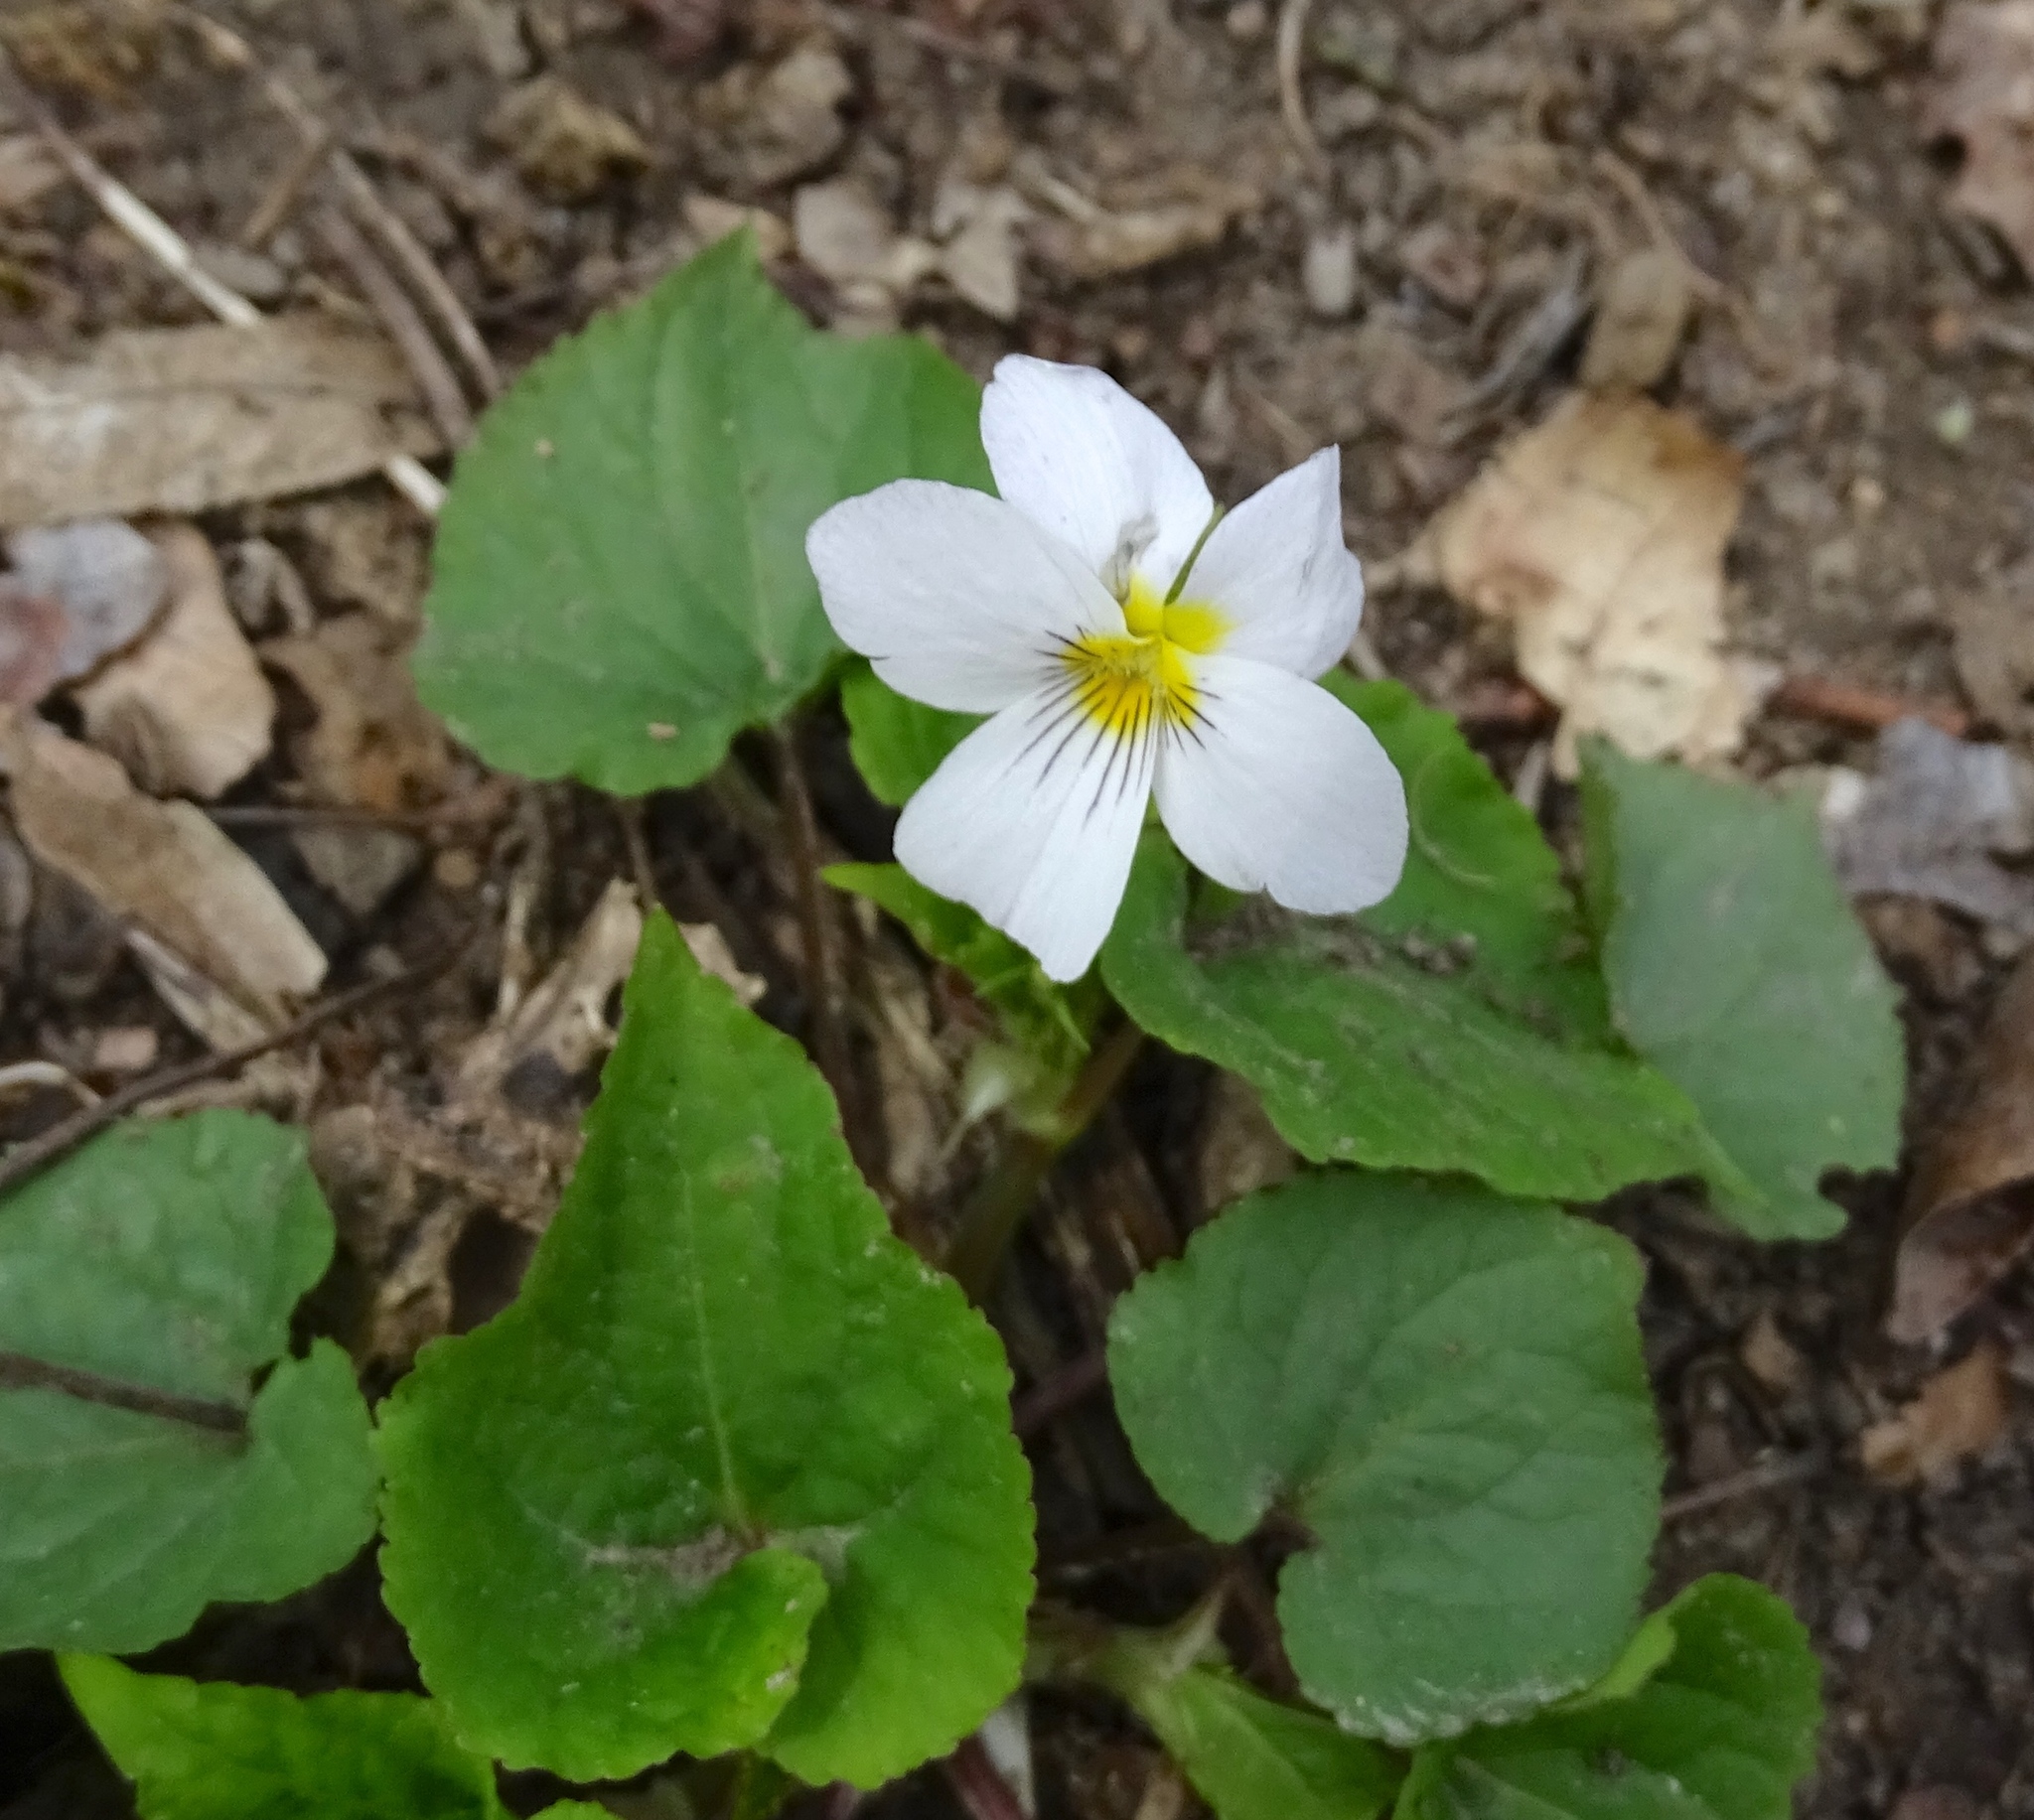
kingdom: Plantae
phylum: Tracheophyta
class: Magnoliopsida
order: Malpighiales
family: Violaceae
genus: Viola
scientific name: Viola canadensis
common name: Canada violet
